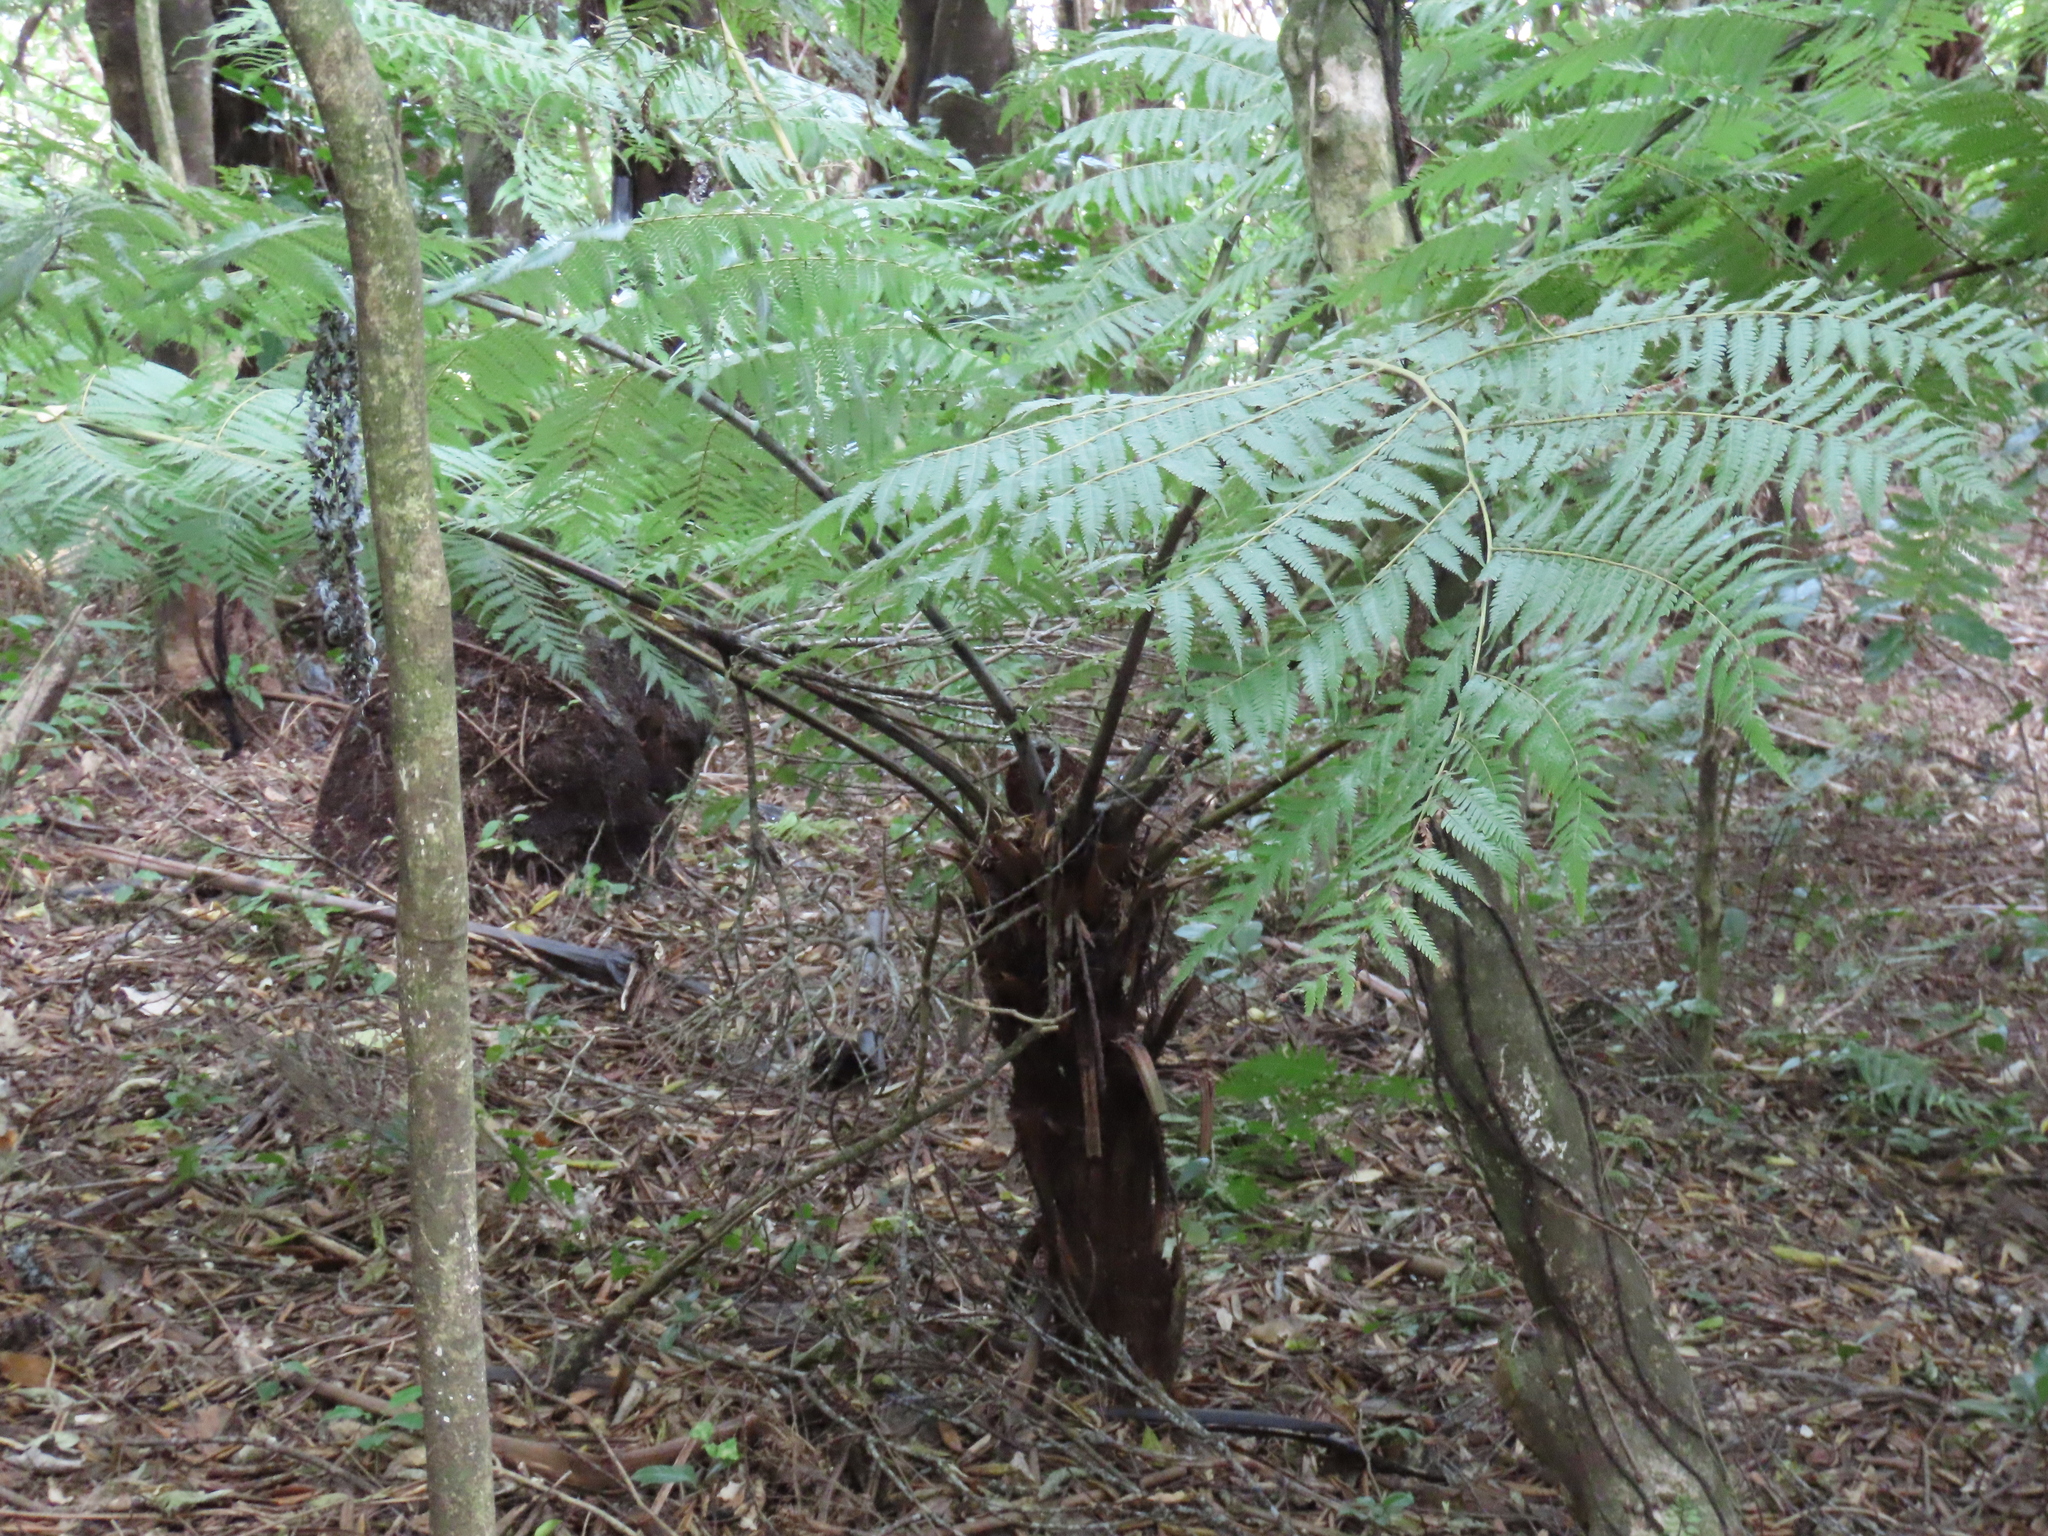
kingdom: Plantae
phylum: Tracheophyta
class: Polypodiopsida
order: Cyatheales
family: Cyatheaceae
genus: Alsophila
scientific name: Alsophila dealbata
